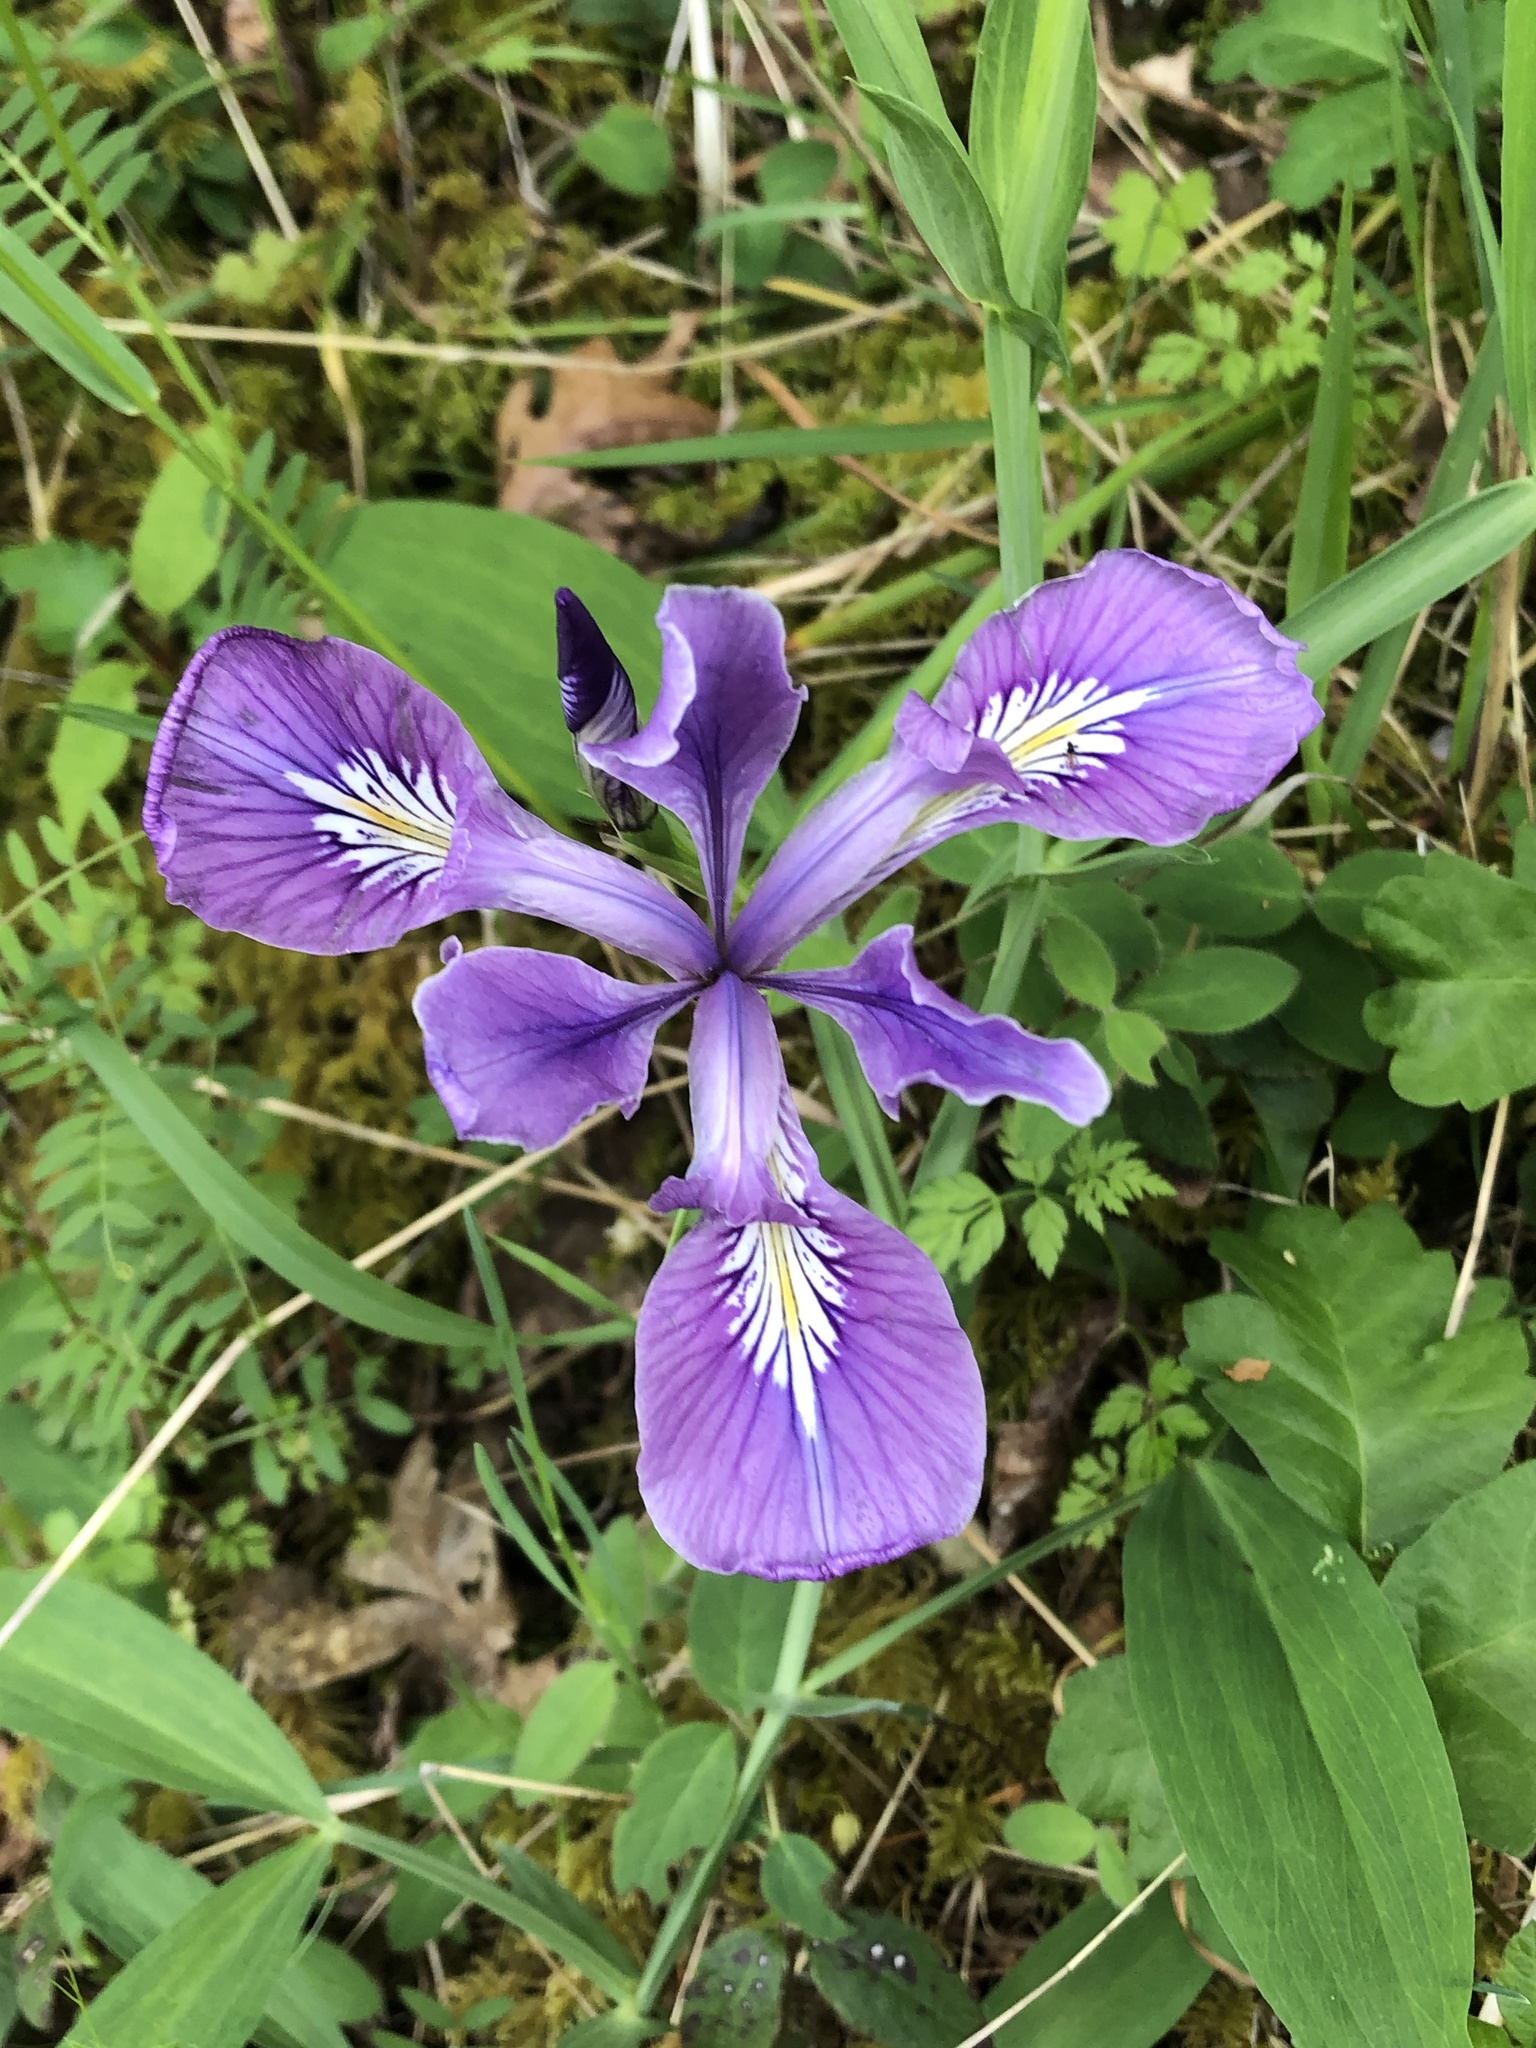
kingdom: Plantae
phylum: Tracheophyta
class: Liliopsida
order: Asparagales
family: Iridaceae
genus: Iris
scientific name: Iris tenax
